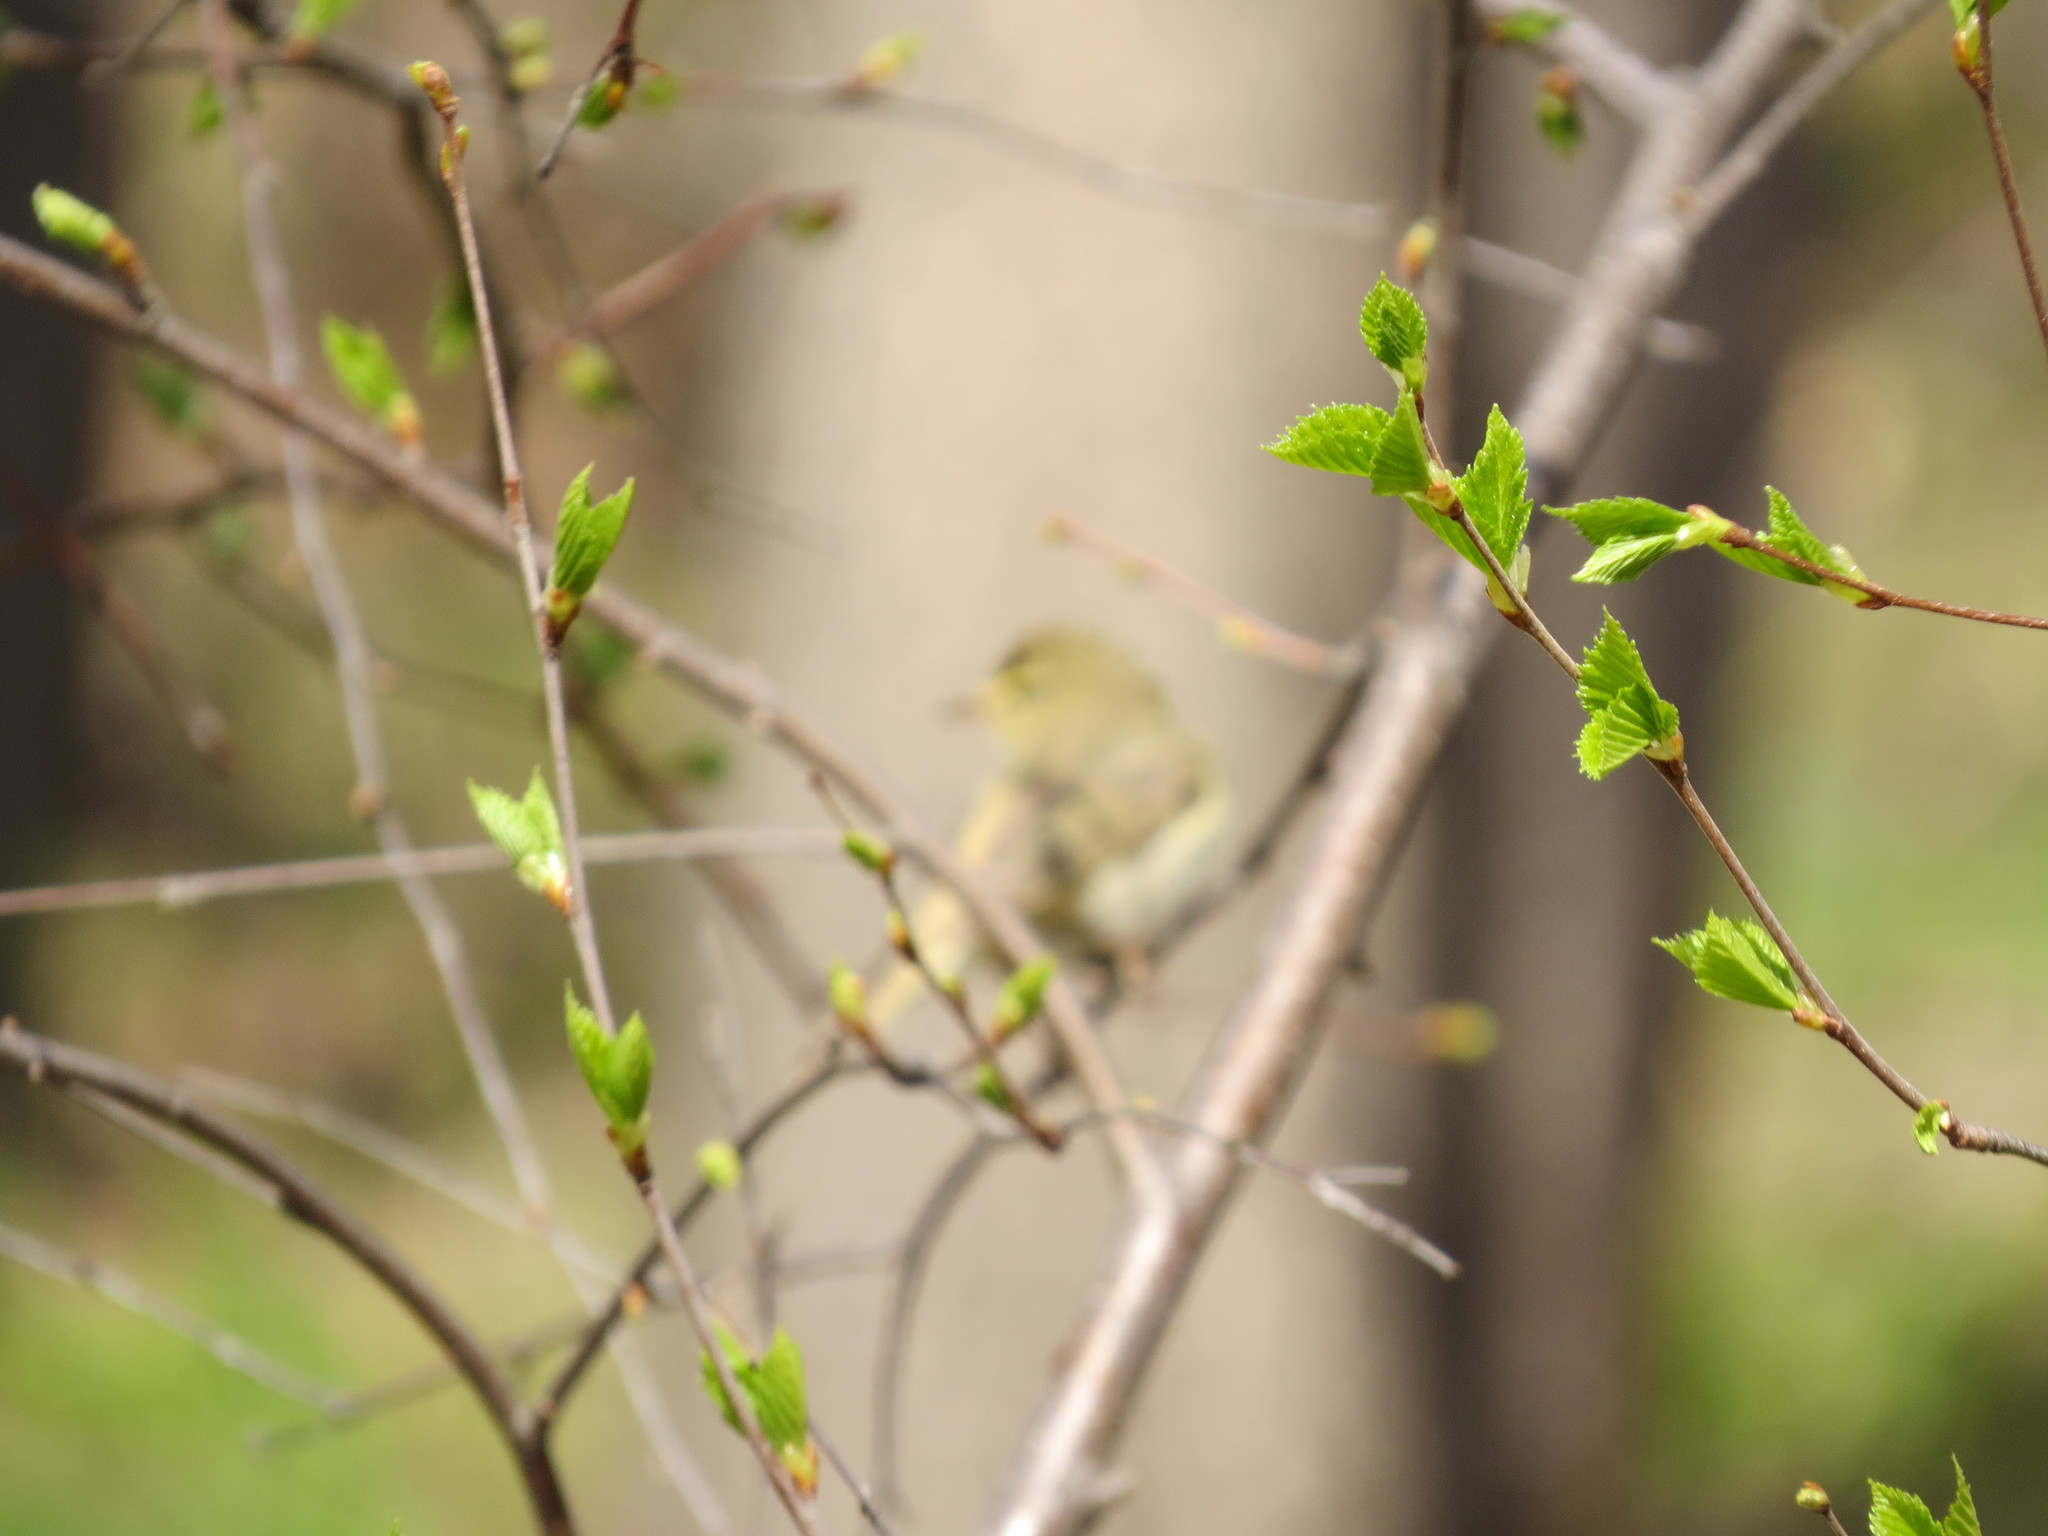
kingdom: Animalia
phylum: Chordata
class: Aves
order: Passeriformes
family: Phylloscopidae
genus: Phylloscopus
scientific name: Phylloscopus trochilus
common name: Willow warbler
